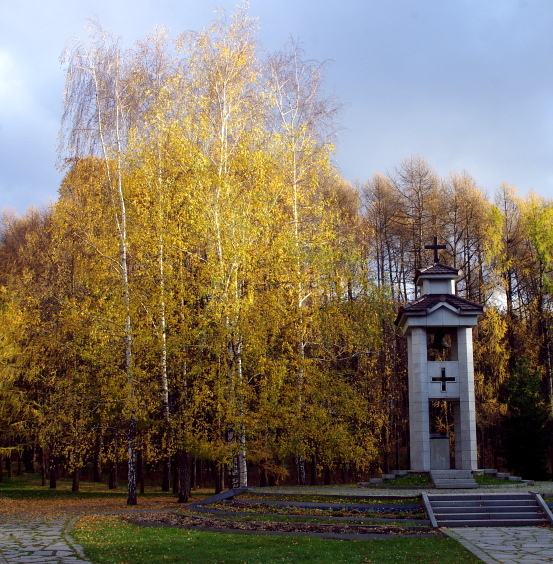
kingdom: Plantae
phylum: Tracheophyta
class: Magnoliopsida
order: Fagales
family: Betulaceae
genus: Betula
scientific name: Betula pendula
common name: Silver birch
